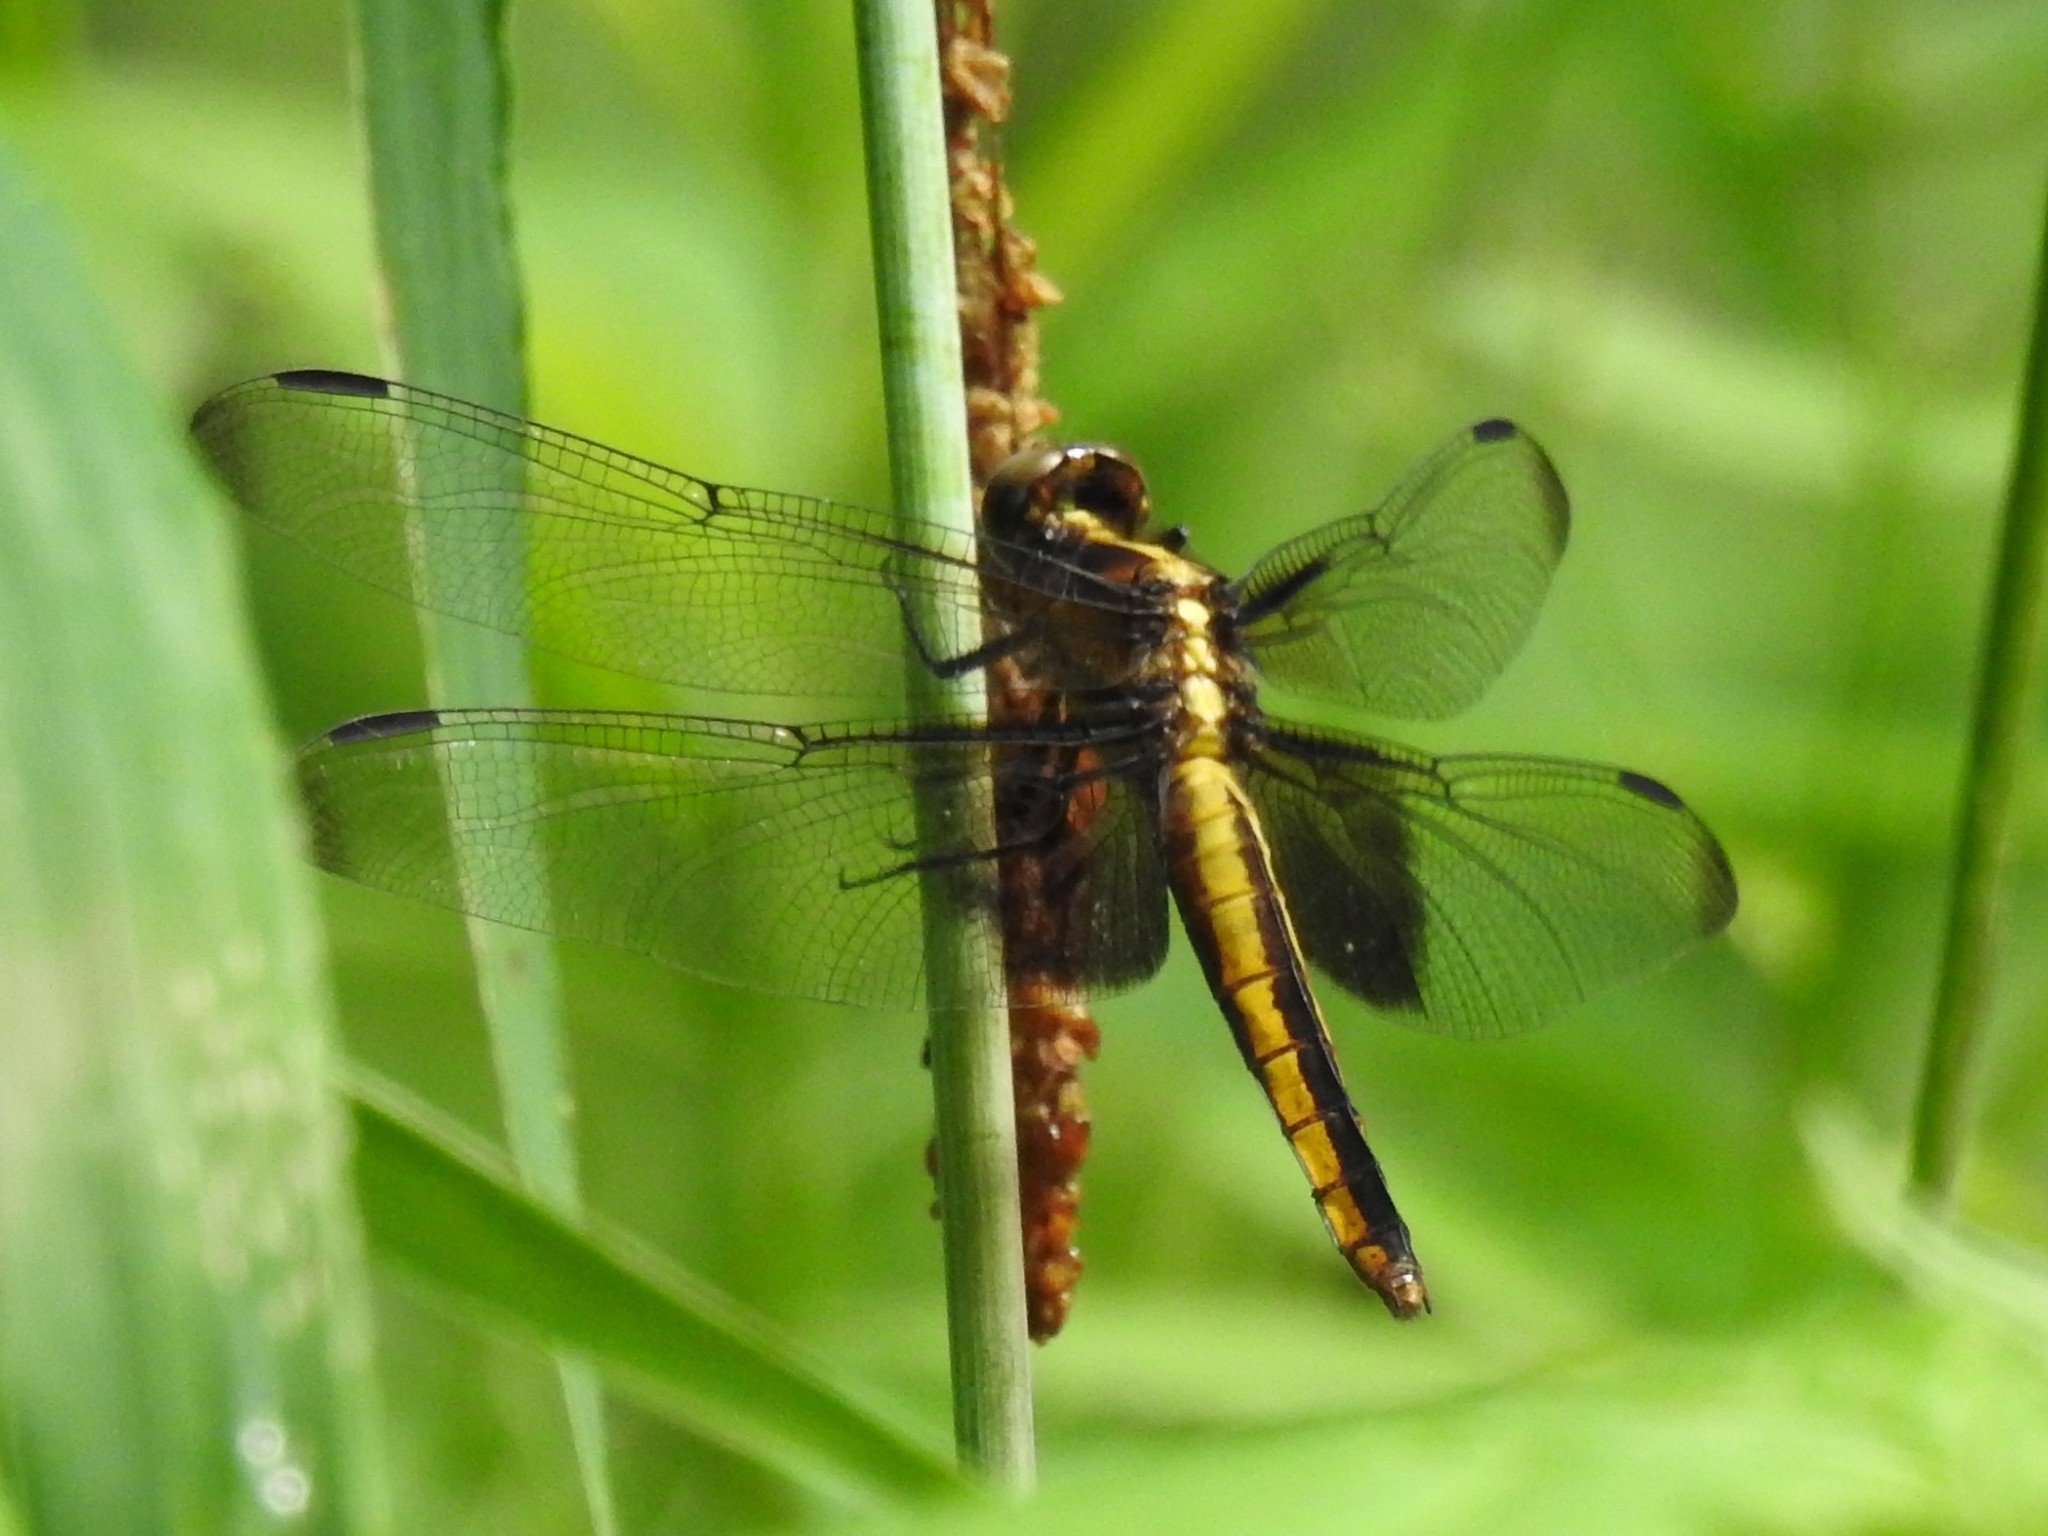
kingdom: Animalia
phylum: Arthropoda
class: Insecta
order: Odonata
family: Libellulidae
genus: Libellula
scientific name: Libellula luctuosa
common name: Widow skimmer
